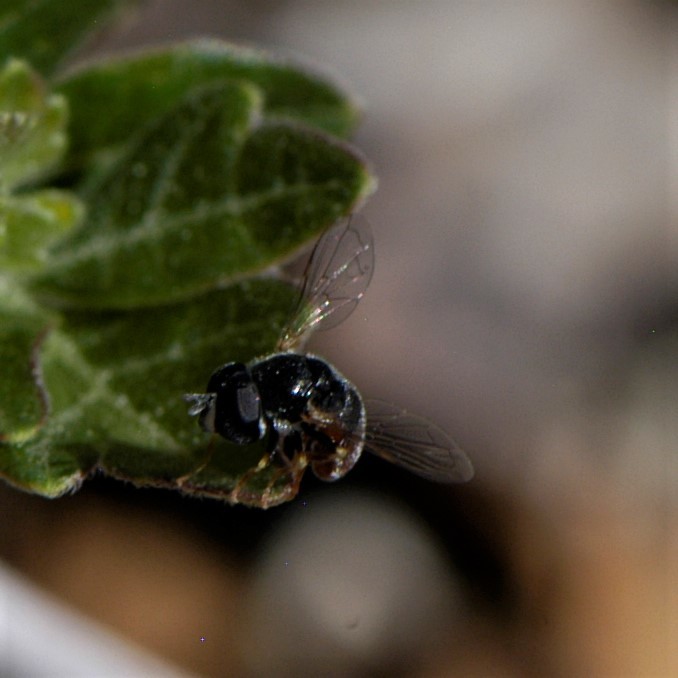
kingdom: Animalia
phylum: Arthropoda
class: Insecta
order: Diptera
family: Syrphidae
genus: Paragus
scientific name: Paragus haemorrhous
